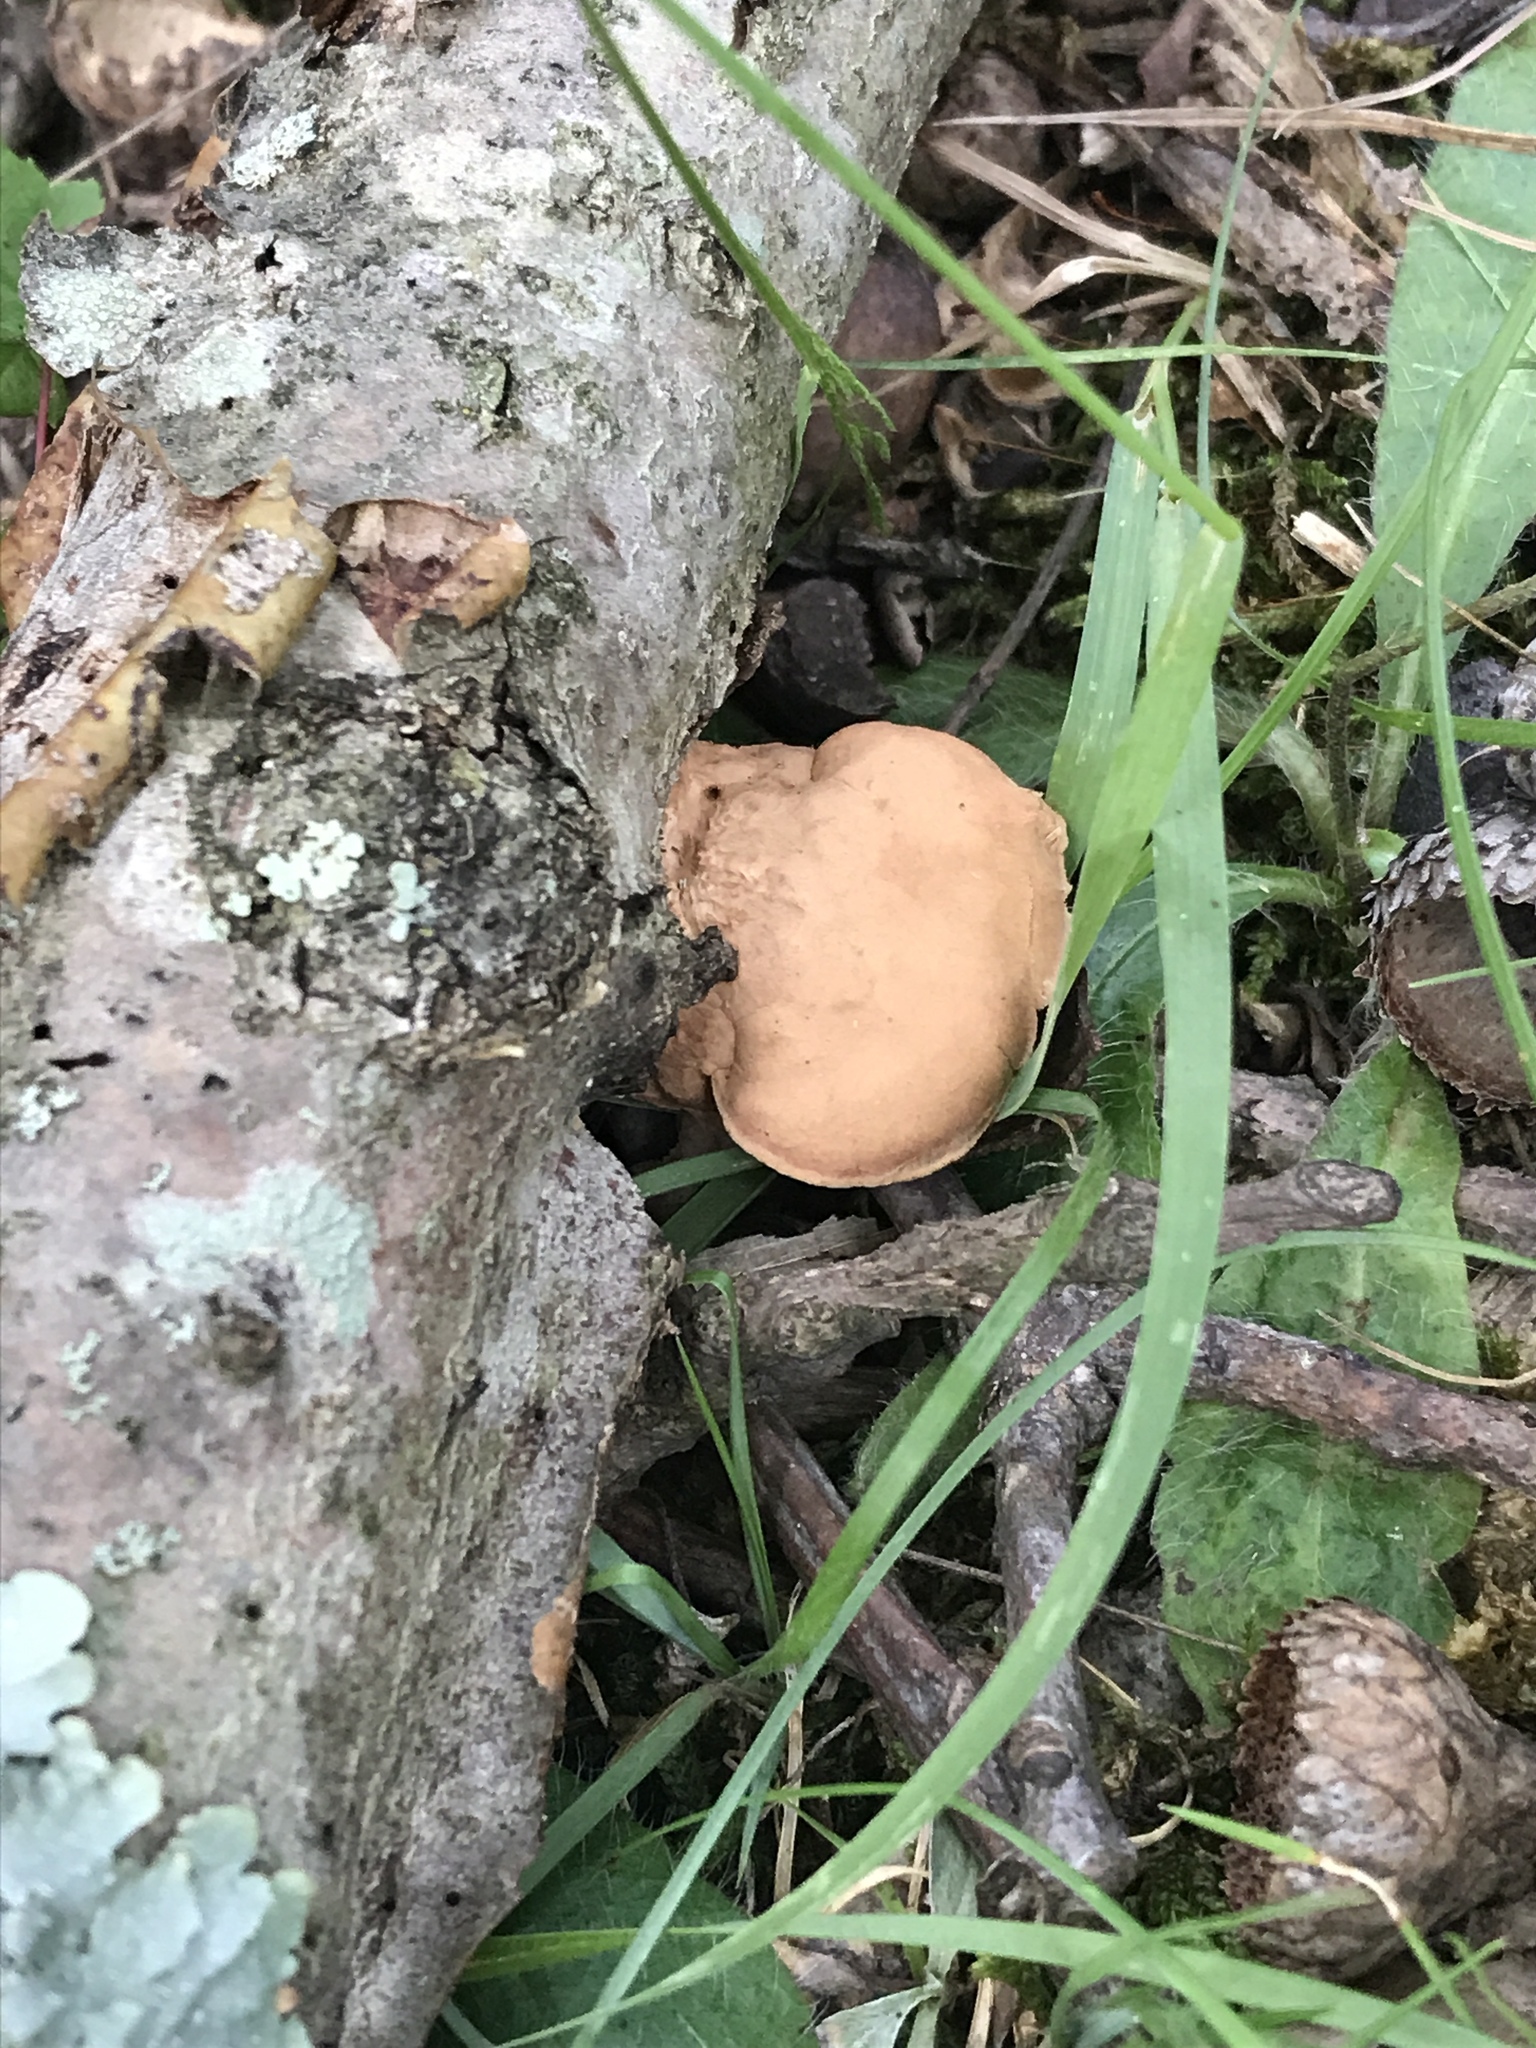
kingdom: Fungi
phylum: Basidiomycota
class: Agaricomycetes
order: Polyporales
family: Phanerochaetaceae
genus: Hapalopilus
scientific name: Hapalopilus rutilans
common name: Tender nesting polypore
